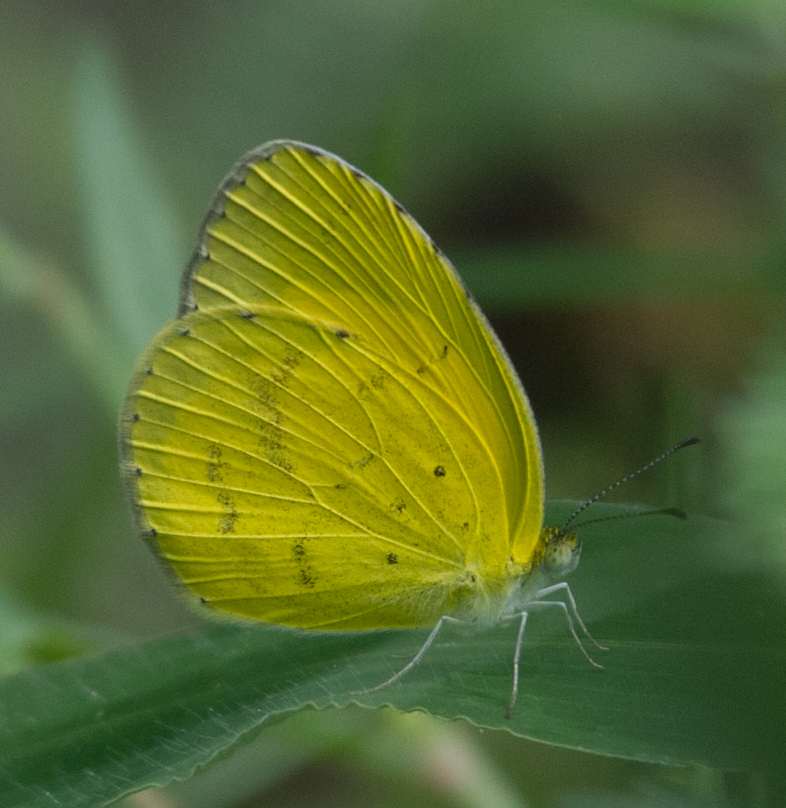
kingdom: Animalia
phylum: Arthropoda
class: Insecta
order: Lepidoptera
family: Pieridae
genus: Eurema
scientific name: Eurema brigitta
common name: Small grass yellow
